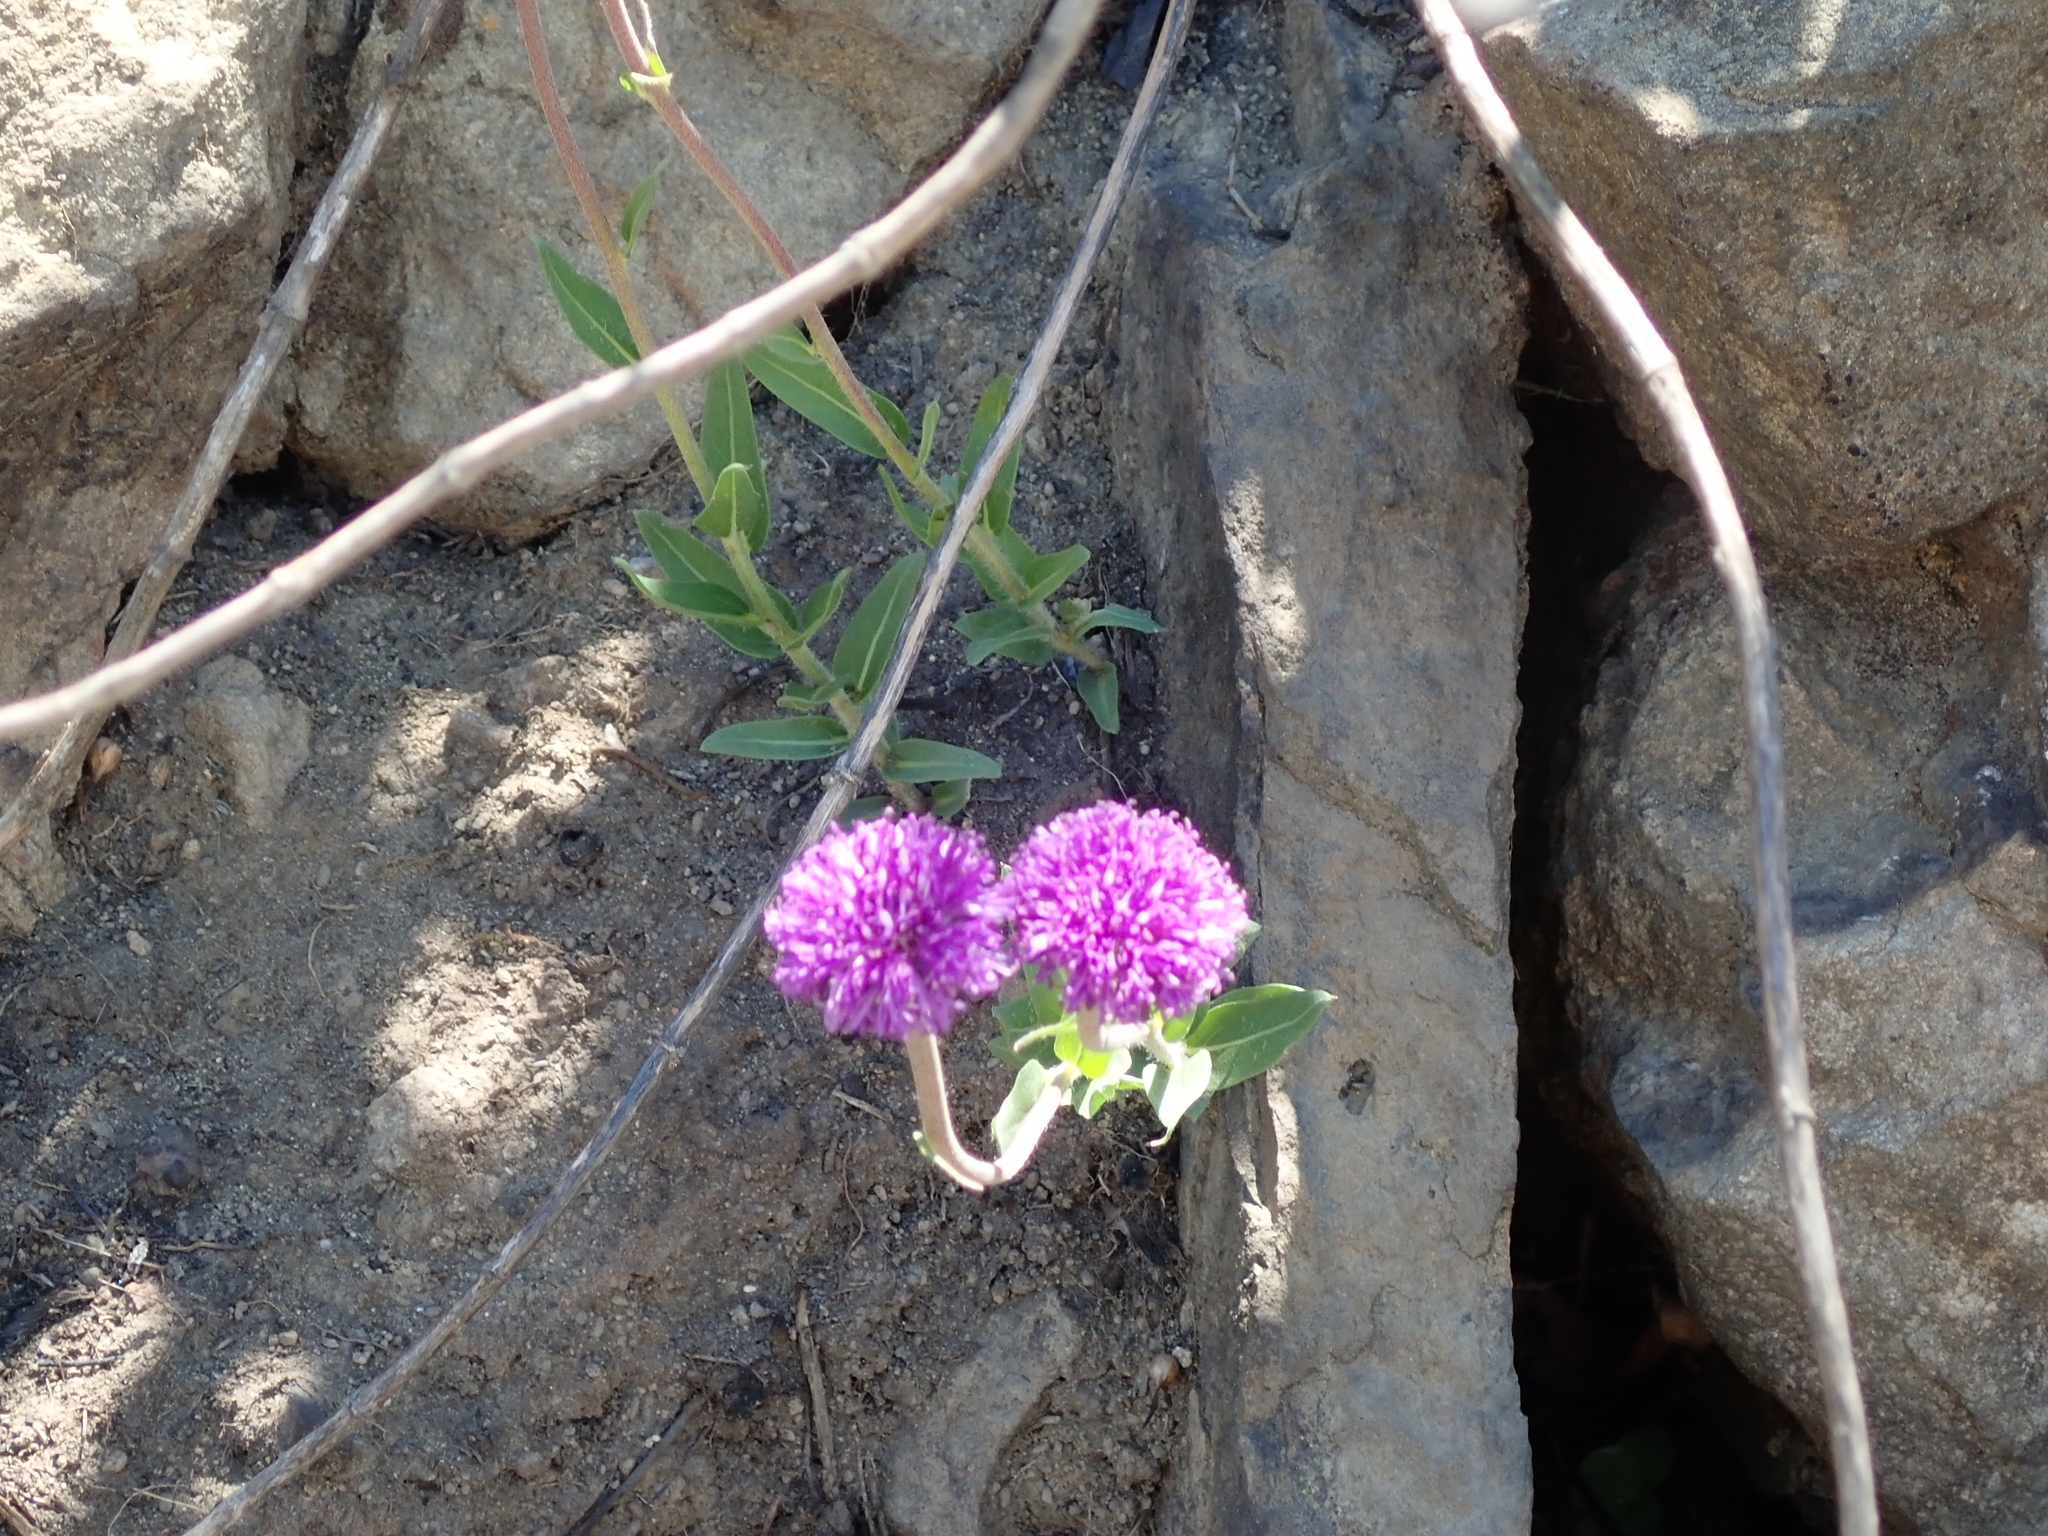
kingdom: Plantae
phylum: Tracheophyta
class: Magnoliopsida
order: Asterales
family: Asteraceae
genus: Pseudopegolettia
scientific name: Pseudopegolettia tenella
